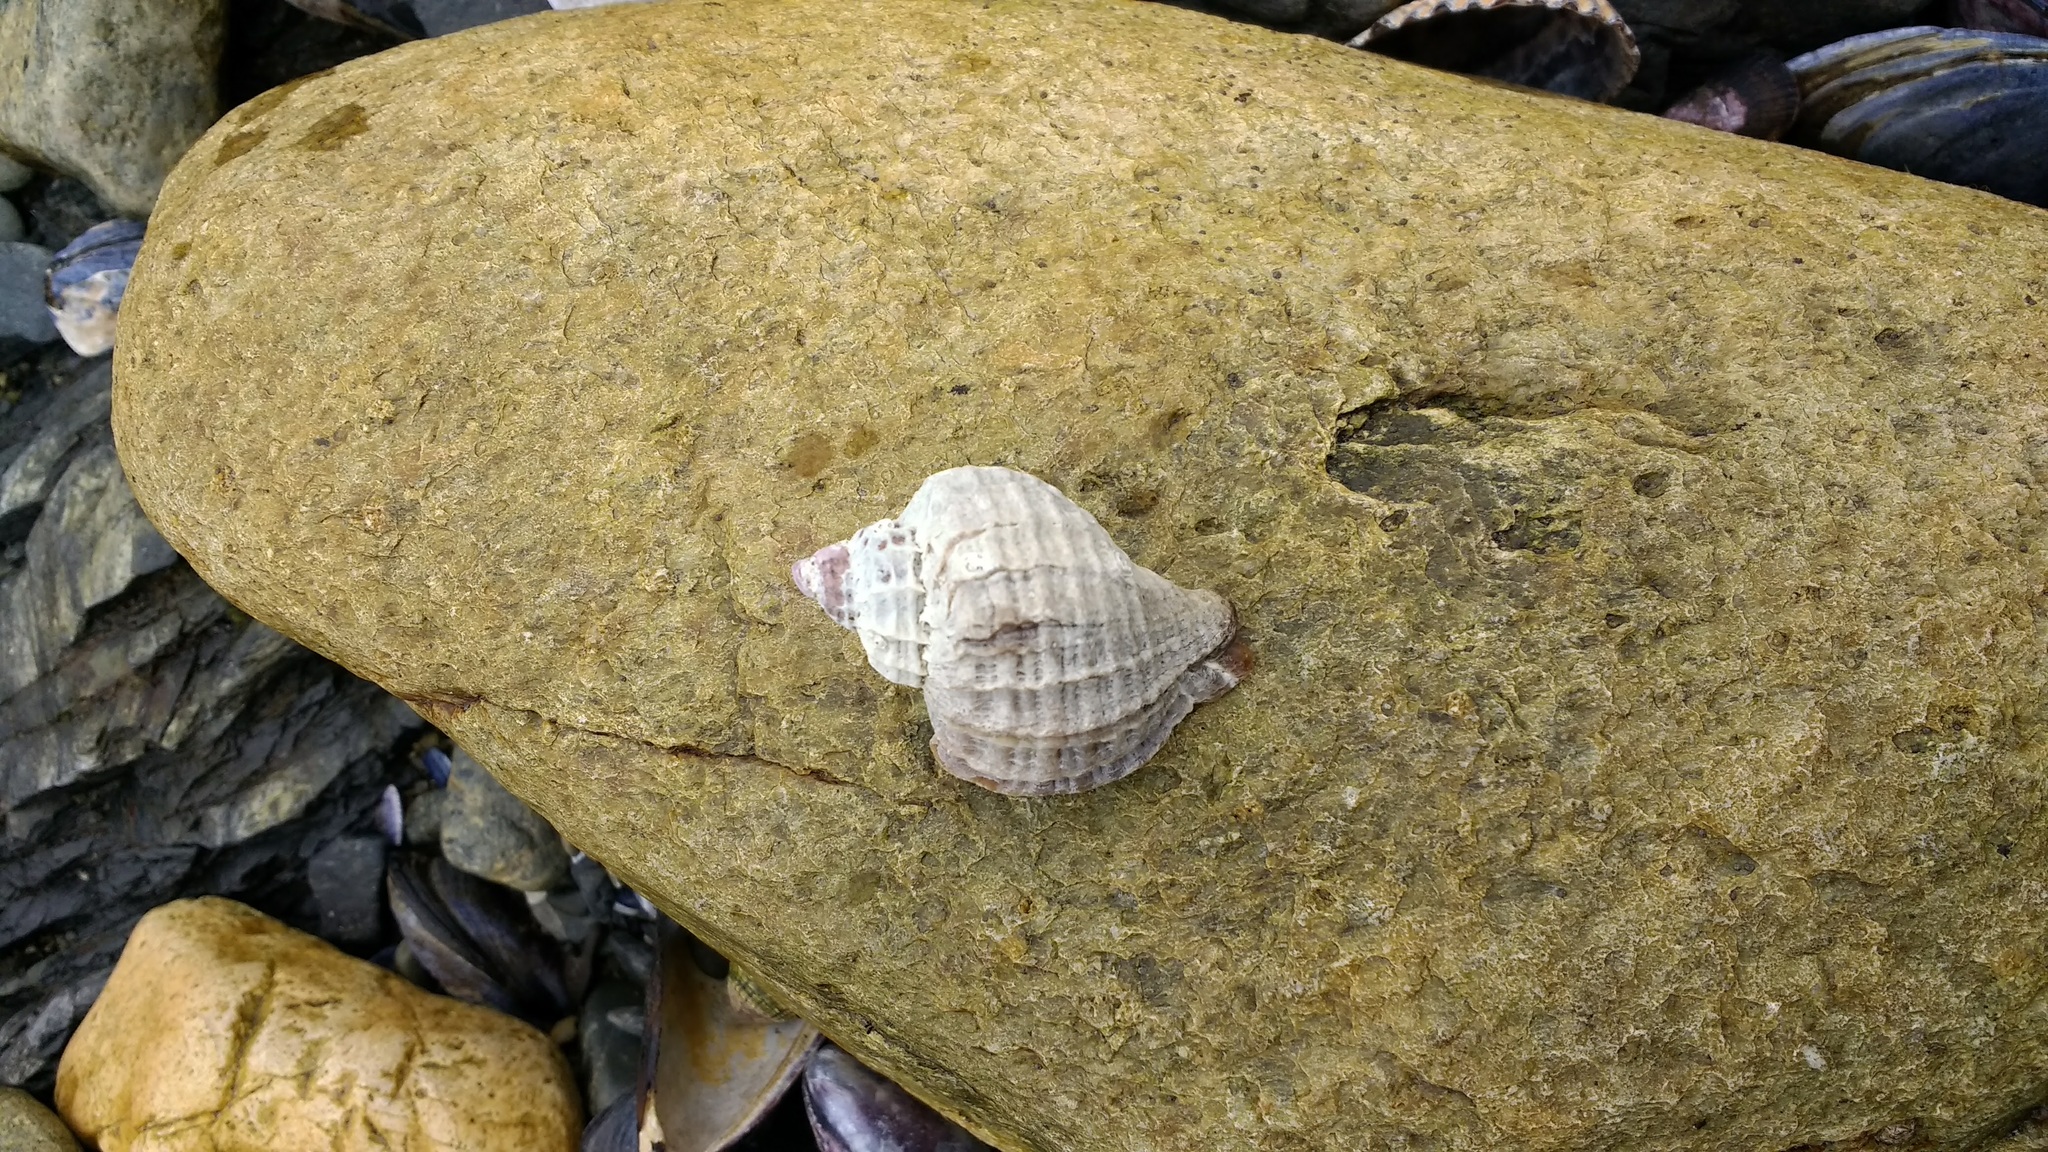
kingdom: Animalia
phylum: Mollusca
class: Gastropoda
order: Neogastropoda
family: Muricidae
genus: Trophon
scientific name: Trophon geversianus
